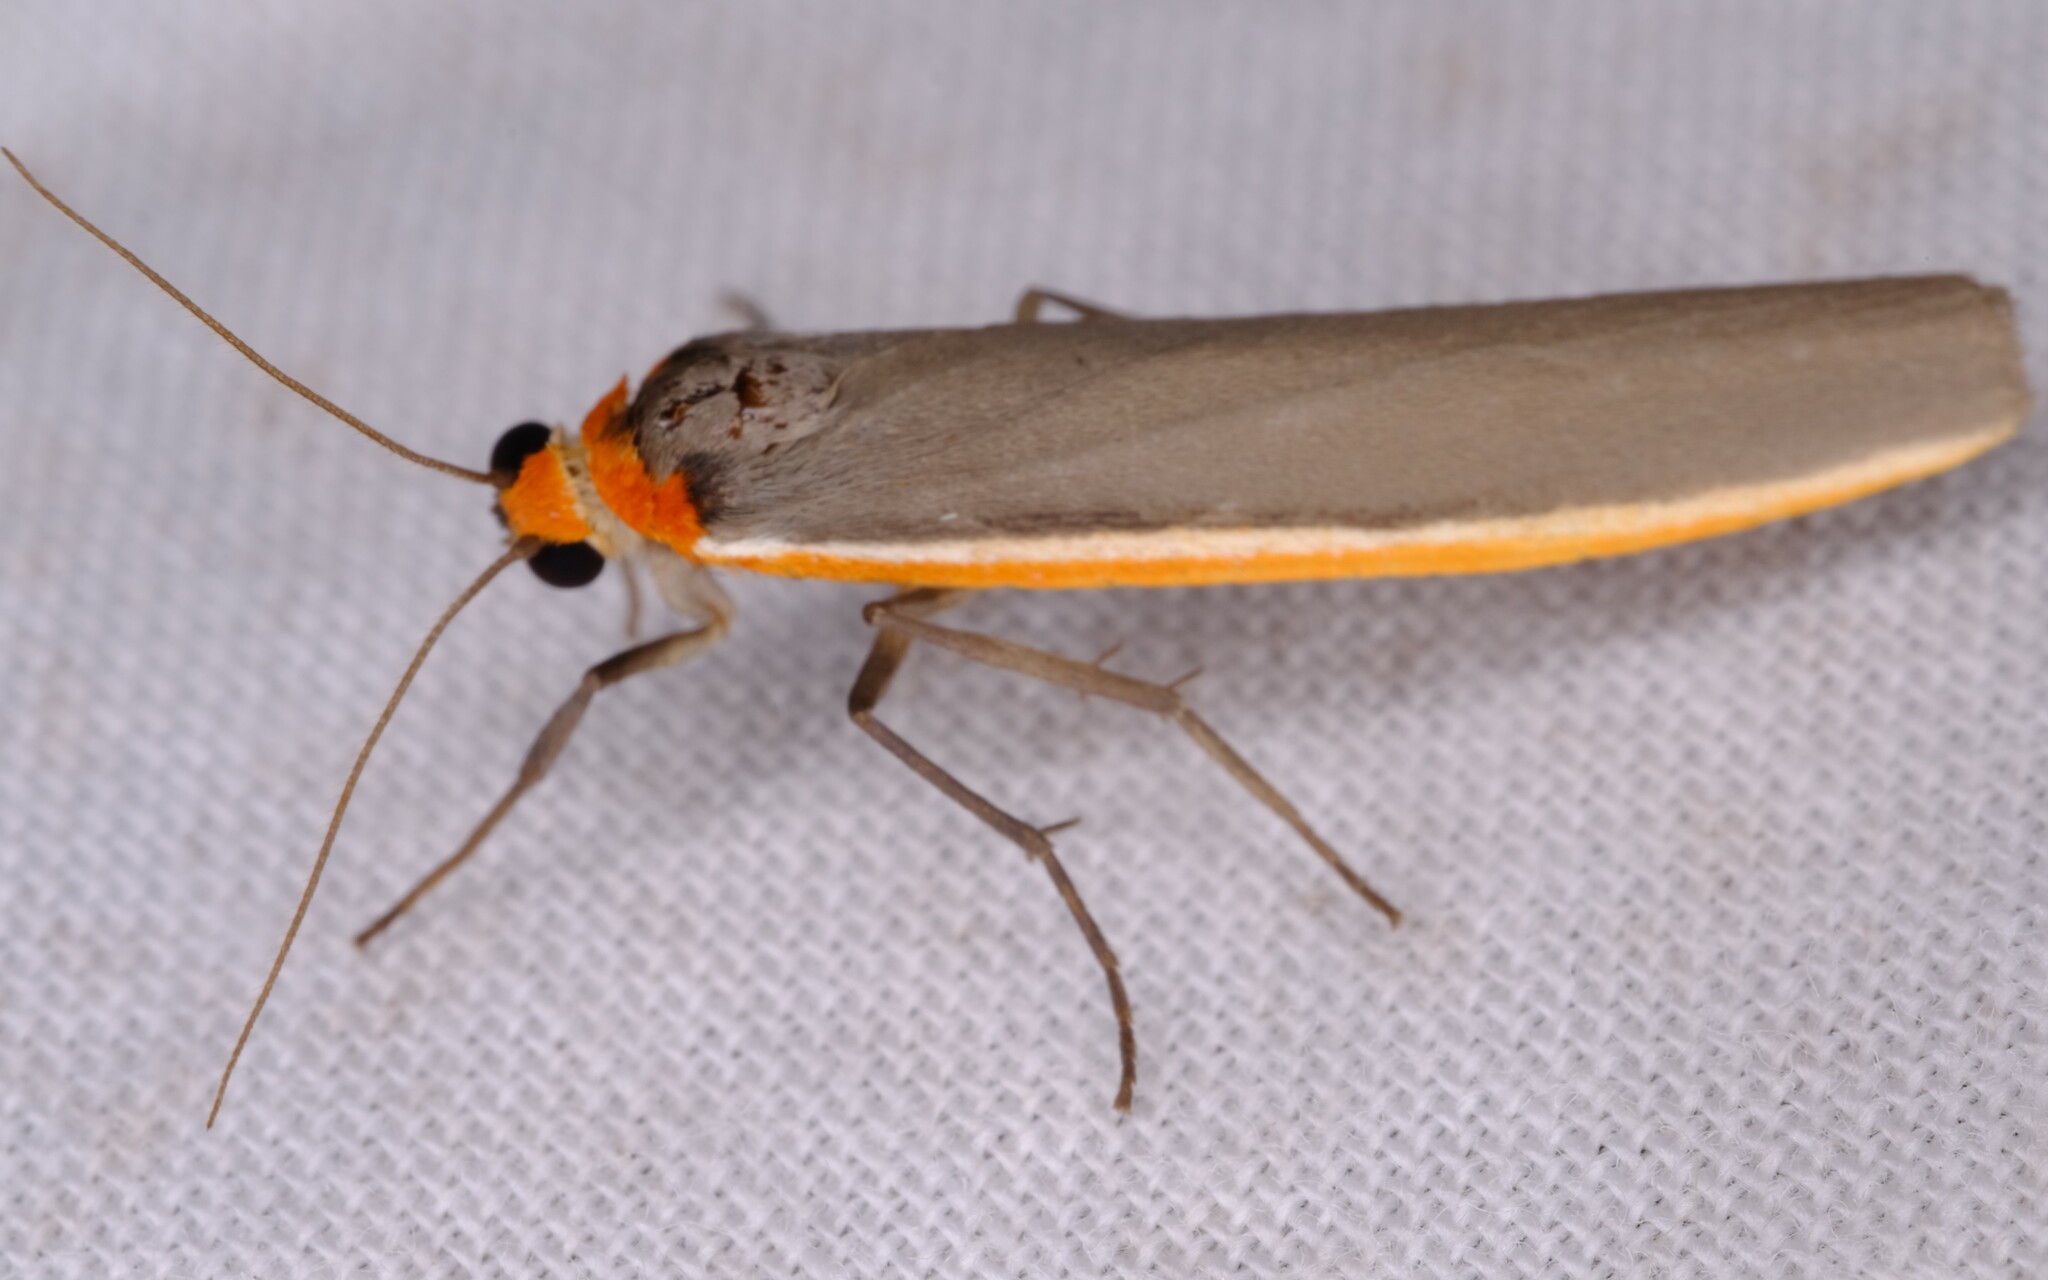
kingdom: Animalia
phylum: Arthropoda
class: Insecta
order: Lepidoptera
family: Erebidae
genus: Palaeosia
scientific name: Palaeosia bicosta
